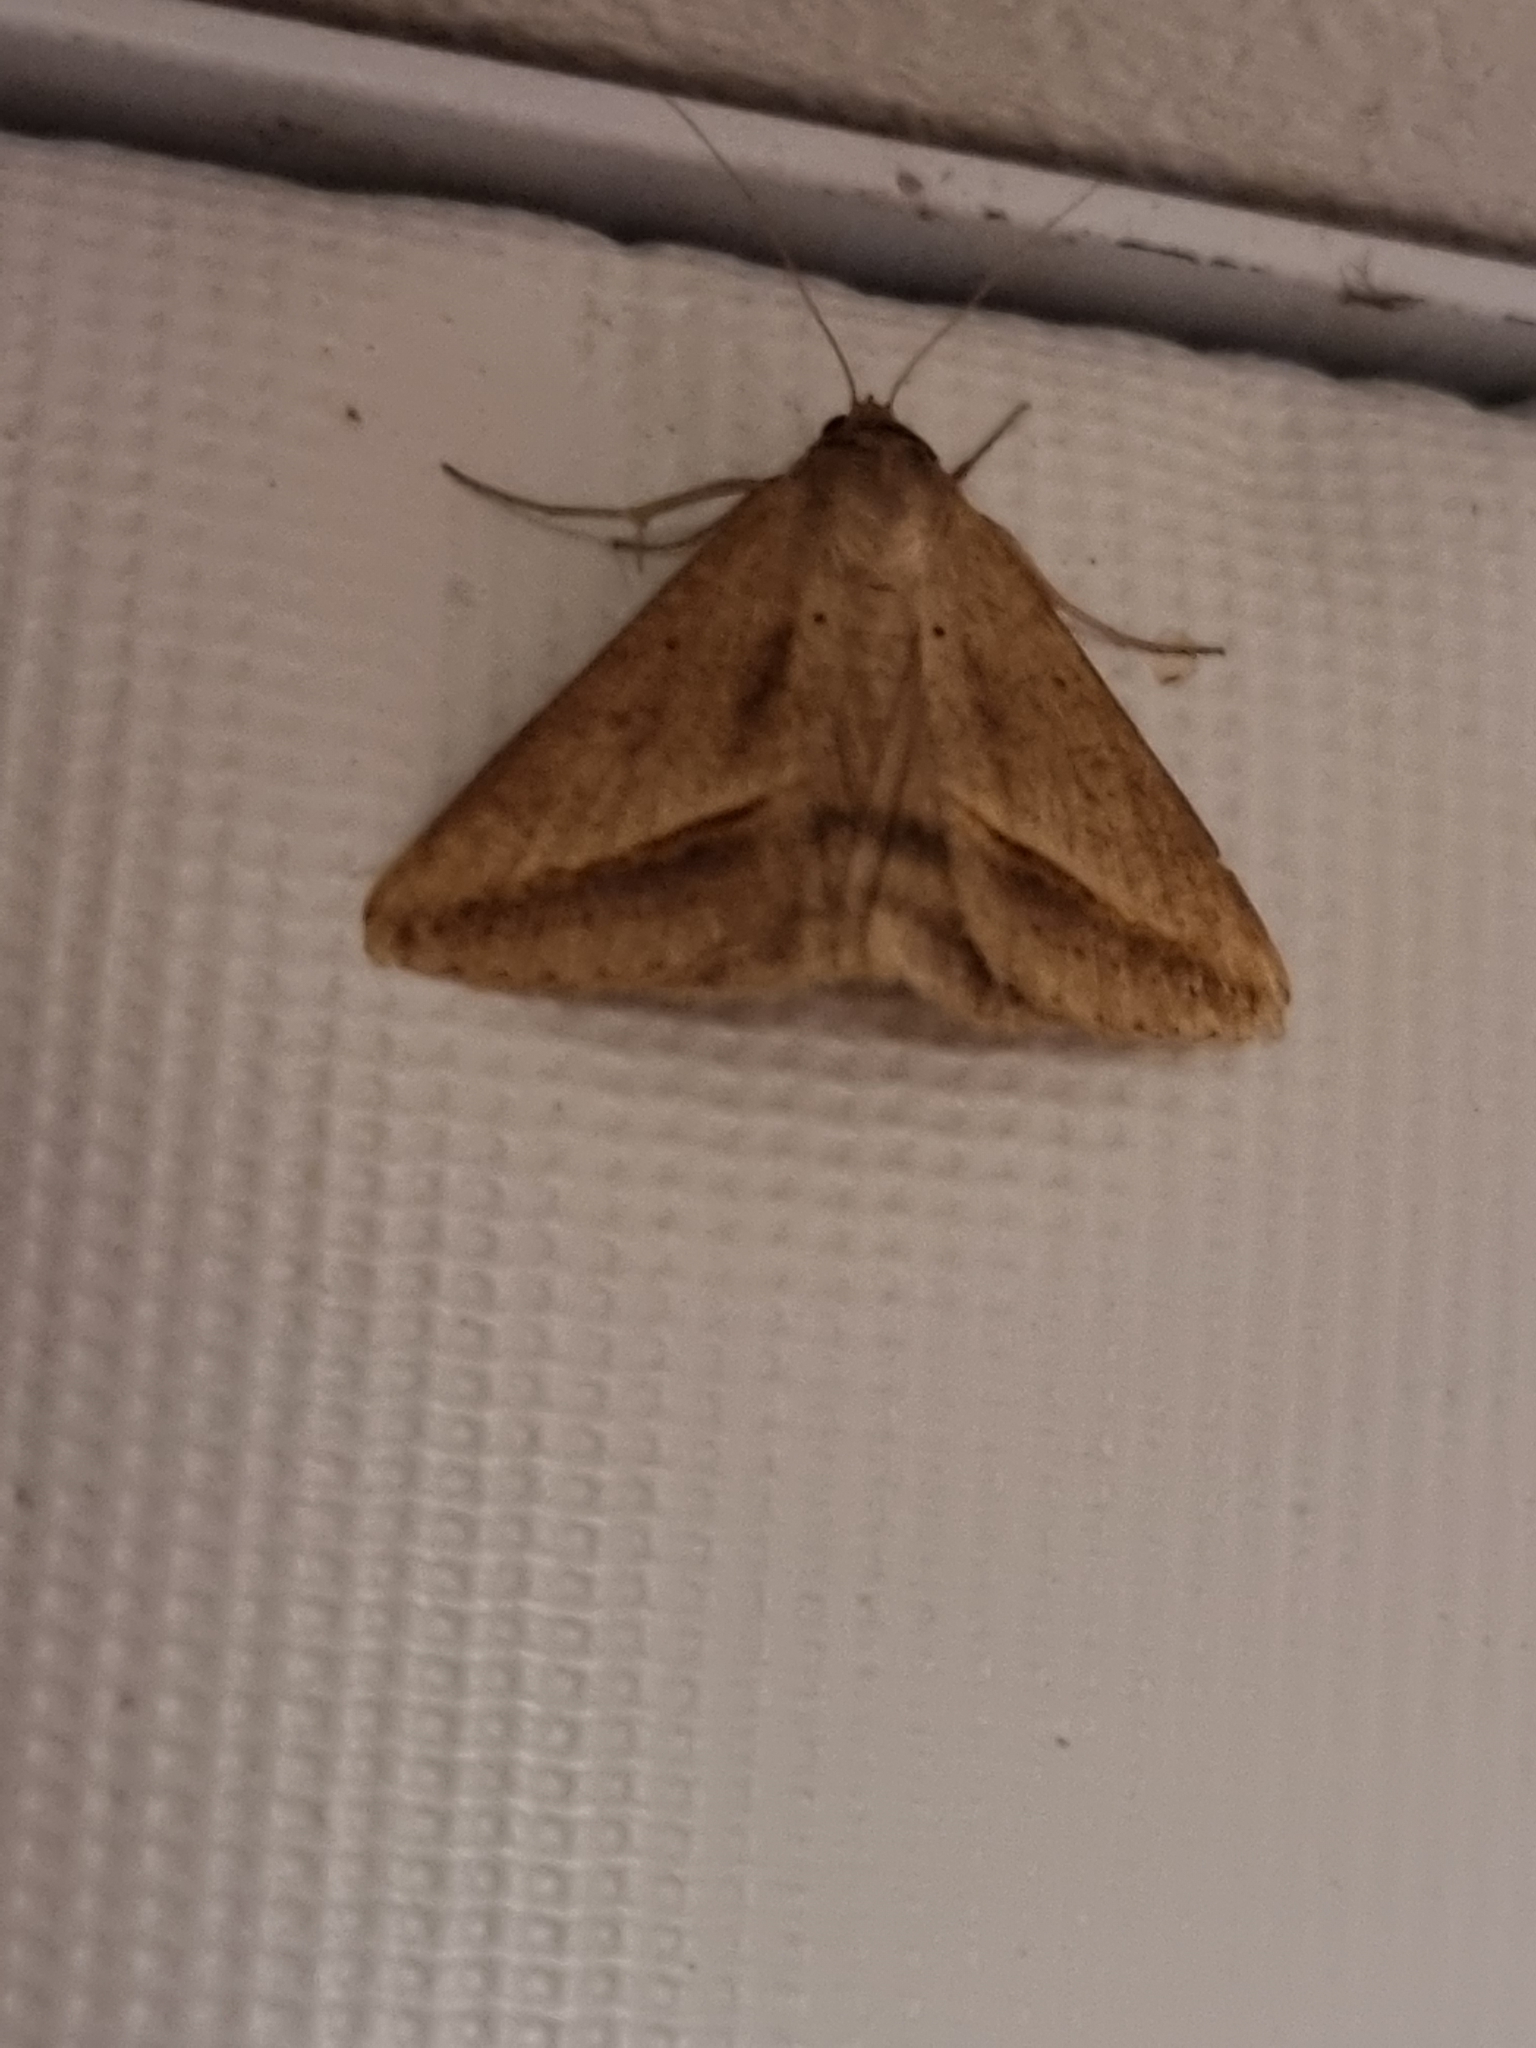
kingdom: Animalia
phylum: Arthropoda
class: Insecta
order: Lepidoptera
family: Erebidae
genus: Mocis
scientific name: Mocis frugalis
